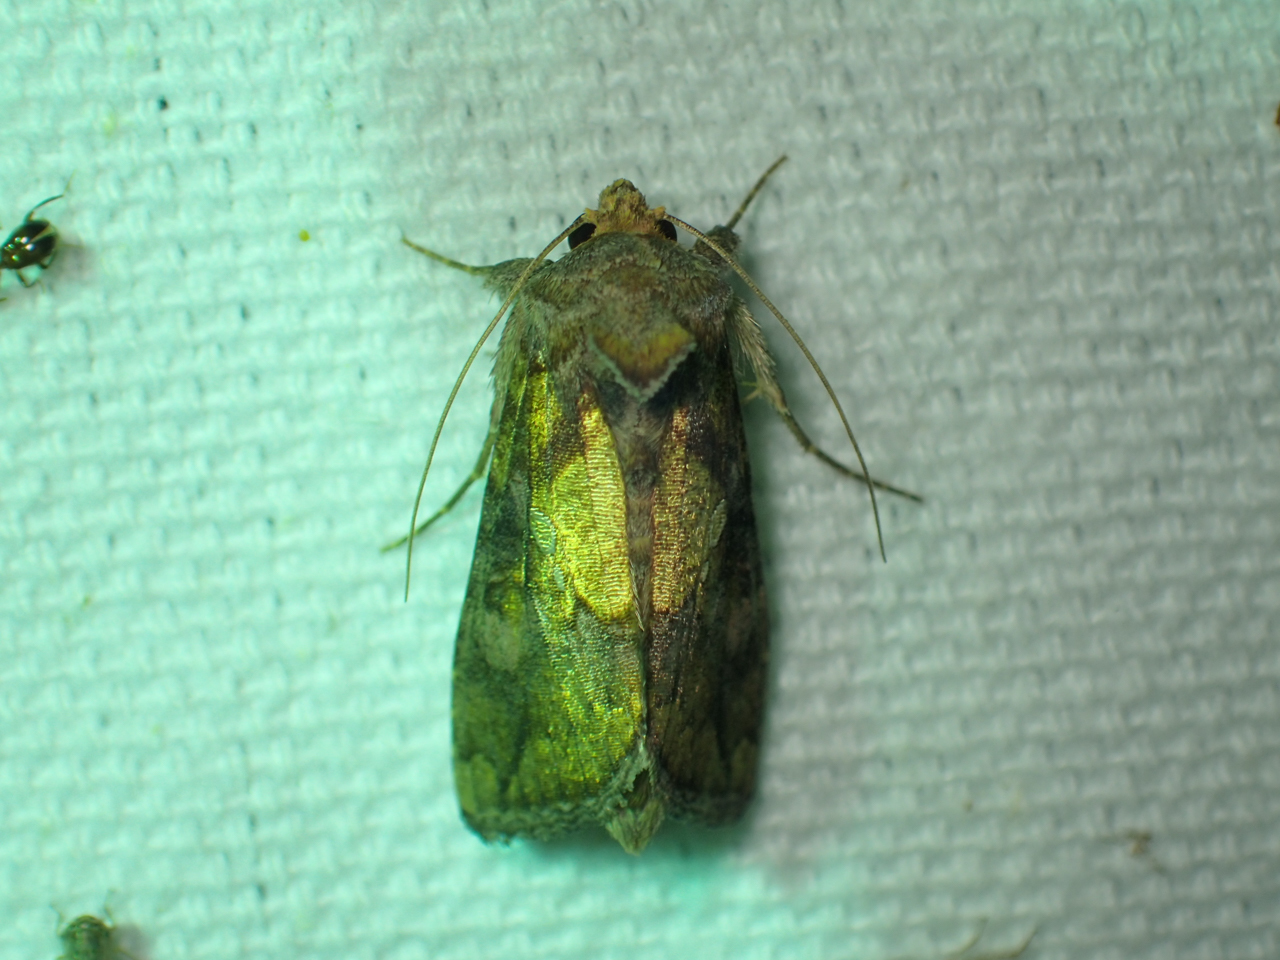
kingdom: Animalia
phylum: Arthropoda
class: Insecta
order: Lepidoptera
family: Noctuidae
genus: Argyrogramma
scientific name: Argyrogramma verruca
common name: Golden looper moth
